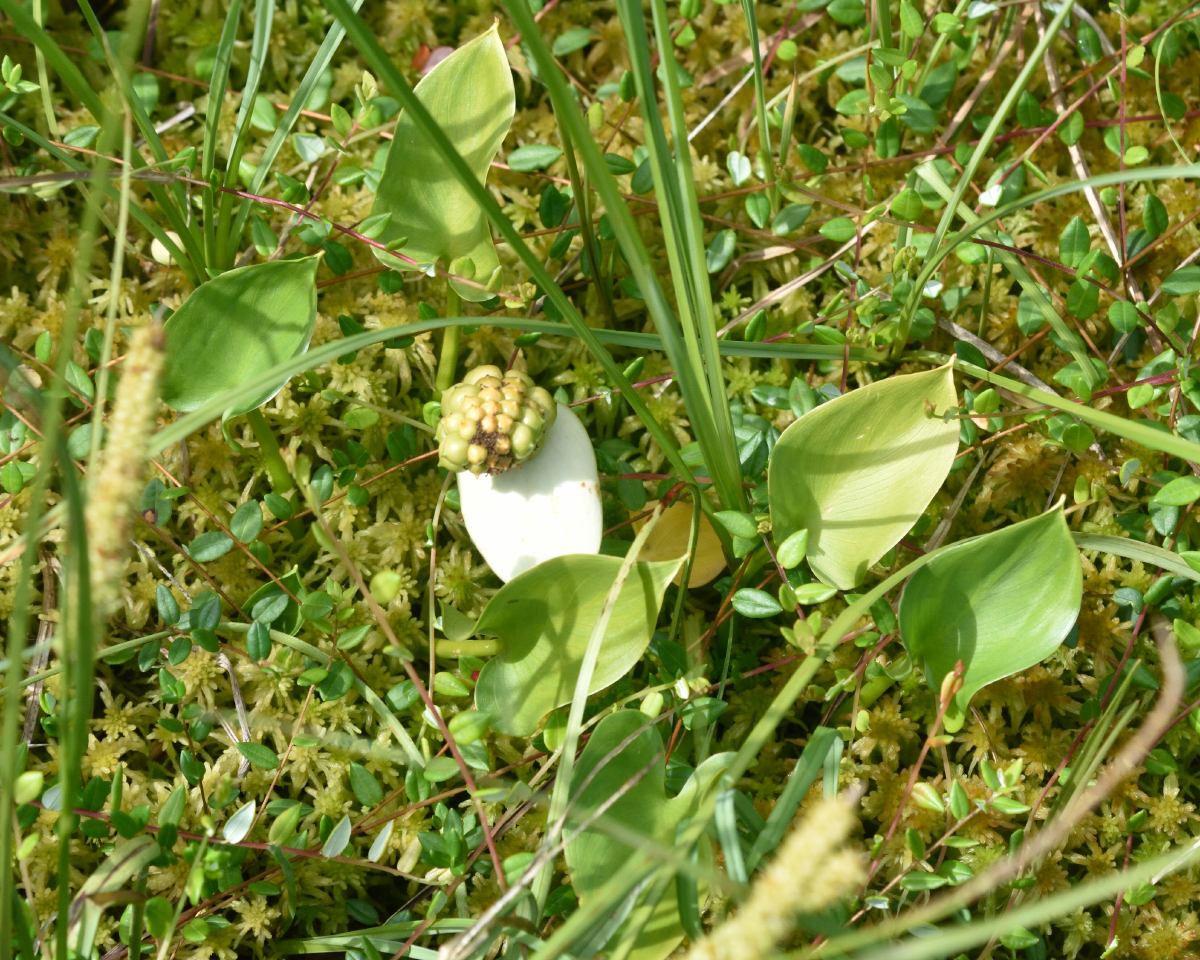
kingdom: Plantae
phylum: Tracheophyta
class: Liliopsida
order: Alismatales
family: Araceae
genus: Calla
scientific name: Calla palustris
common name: Bog arum
